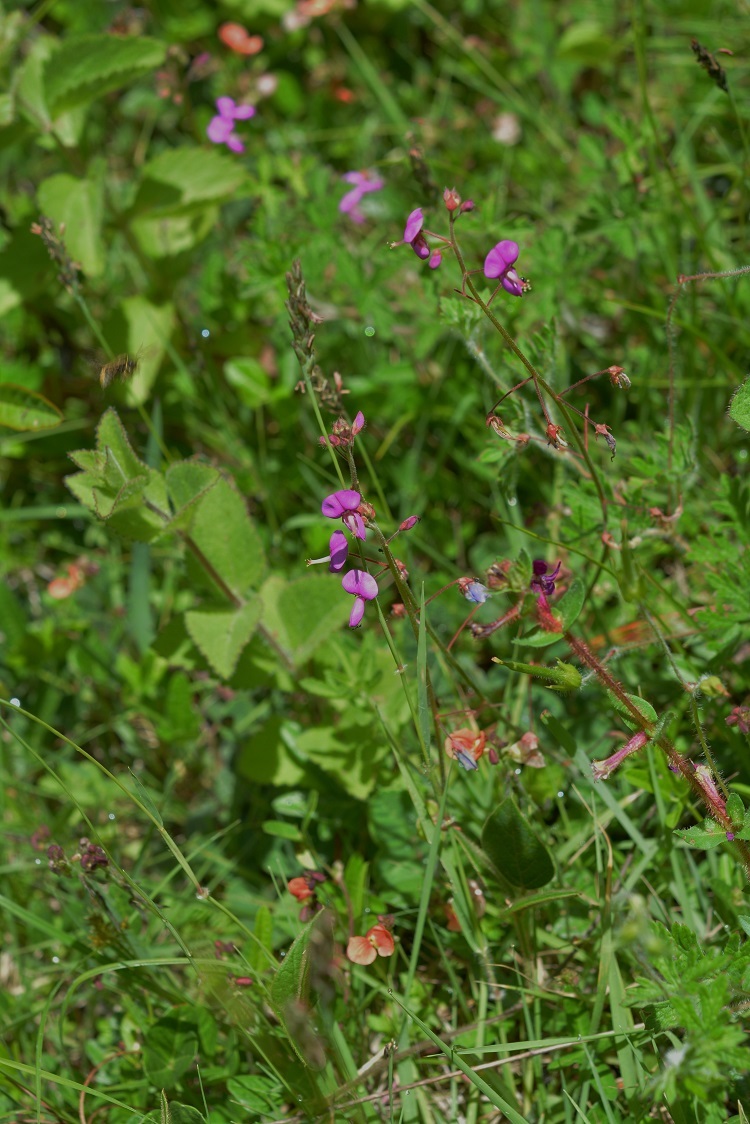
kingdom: Plantae
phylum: Tracheophyta
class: Magnoliopsida
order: Fabales
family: Fabaceae
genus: Desmodium
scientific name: Desmodium
